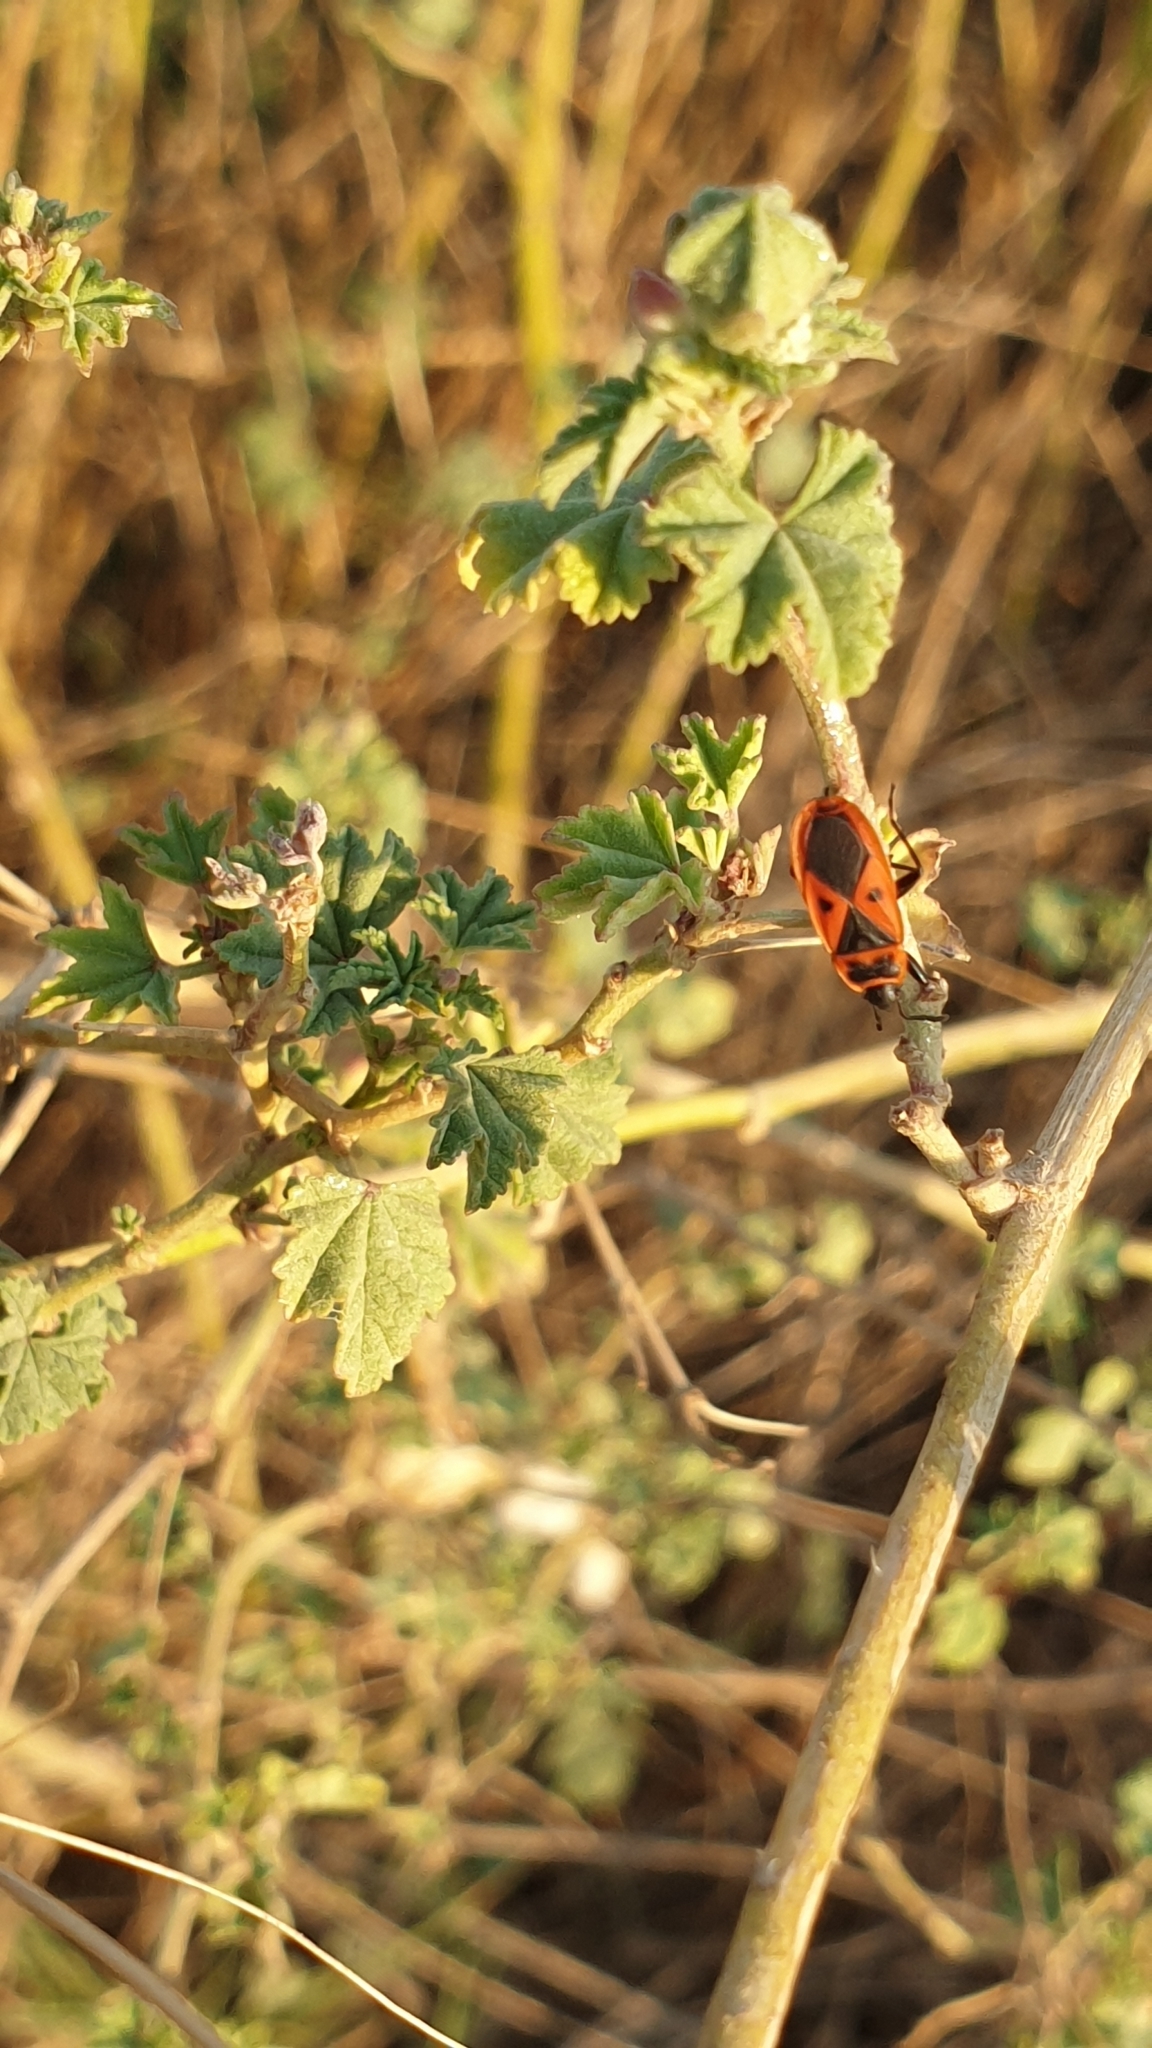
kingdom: Animalia
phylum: Arthropoda
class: Insecta
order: Hemiptera
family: Pyrrhocoridae
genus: Scantius
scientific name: Scantius aegyptius
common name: Red bug
